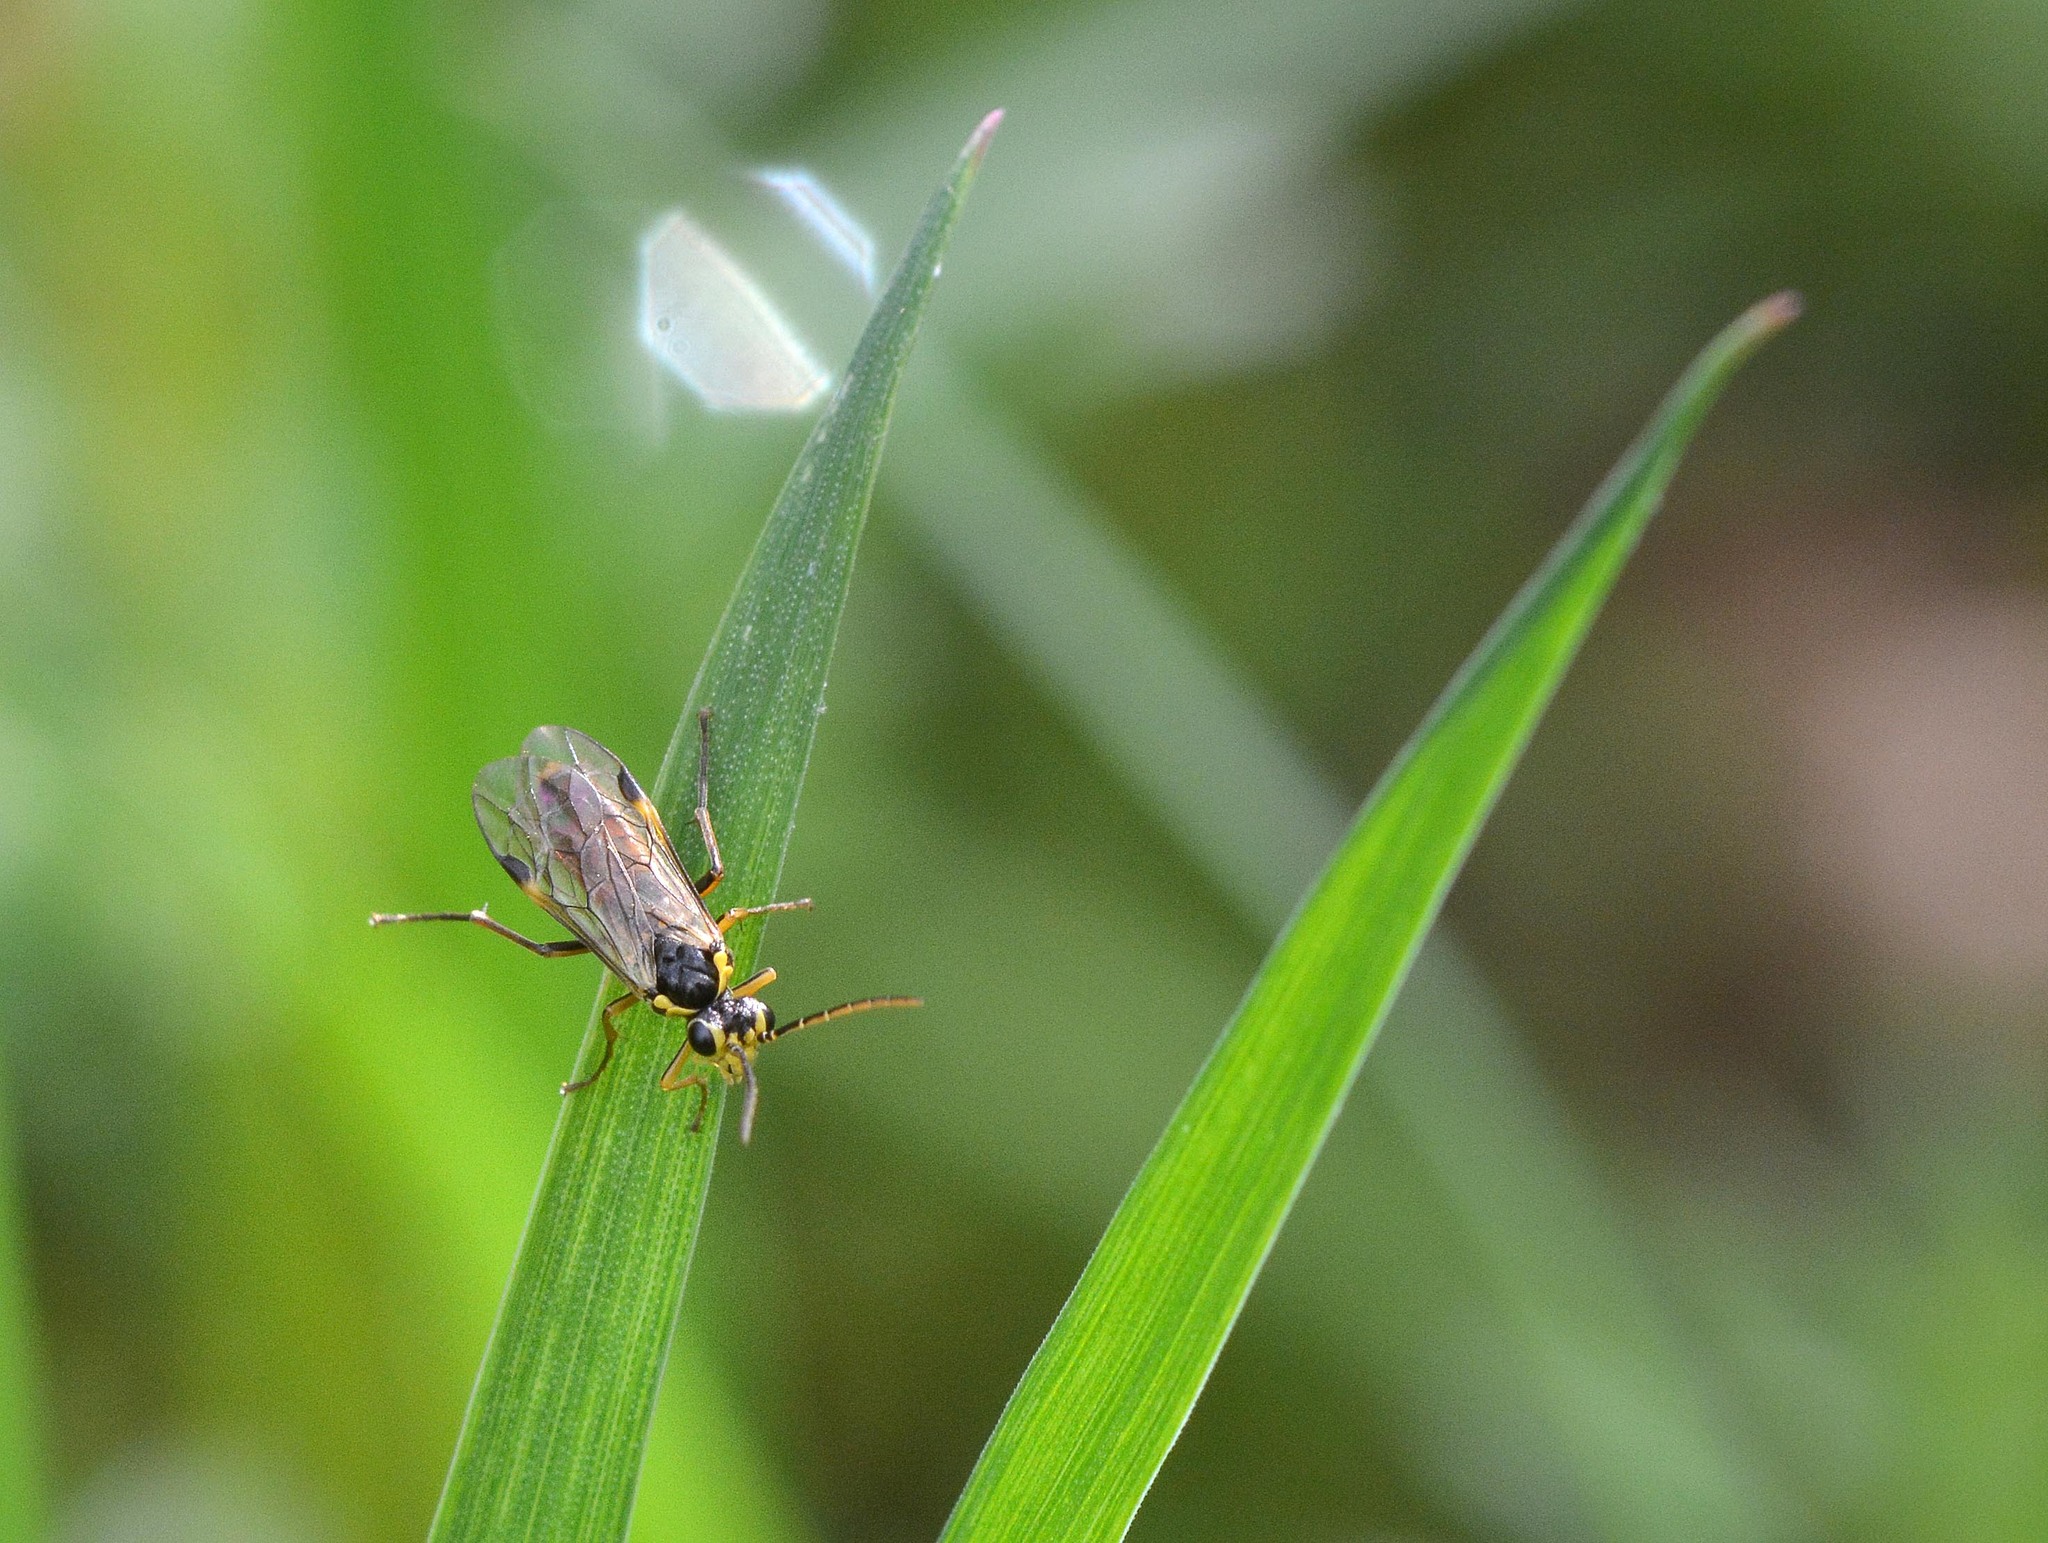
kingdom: Animalia
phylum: Arthropoda
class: Insecta
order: Hymenoptera
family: Tenthredinidae
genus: Aglaostigma
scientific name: Aglaostigma fulvipes
